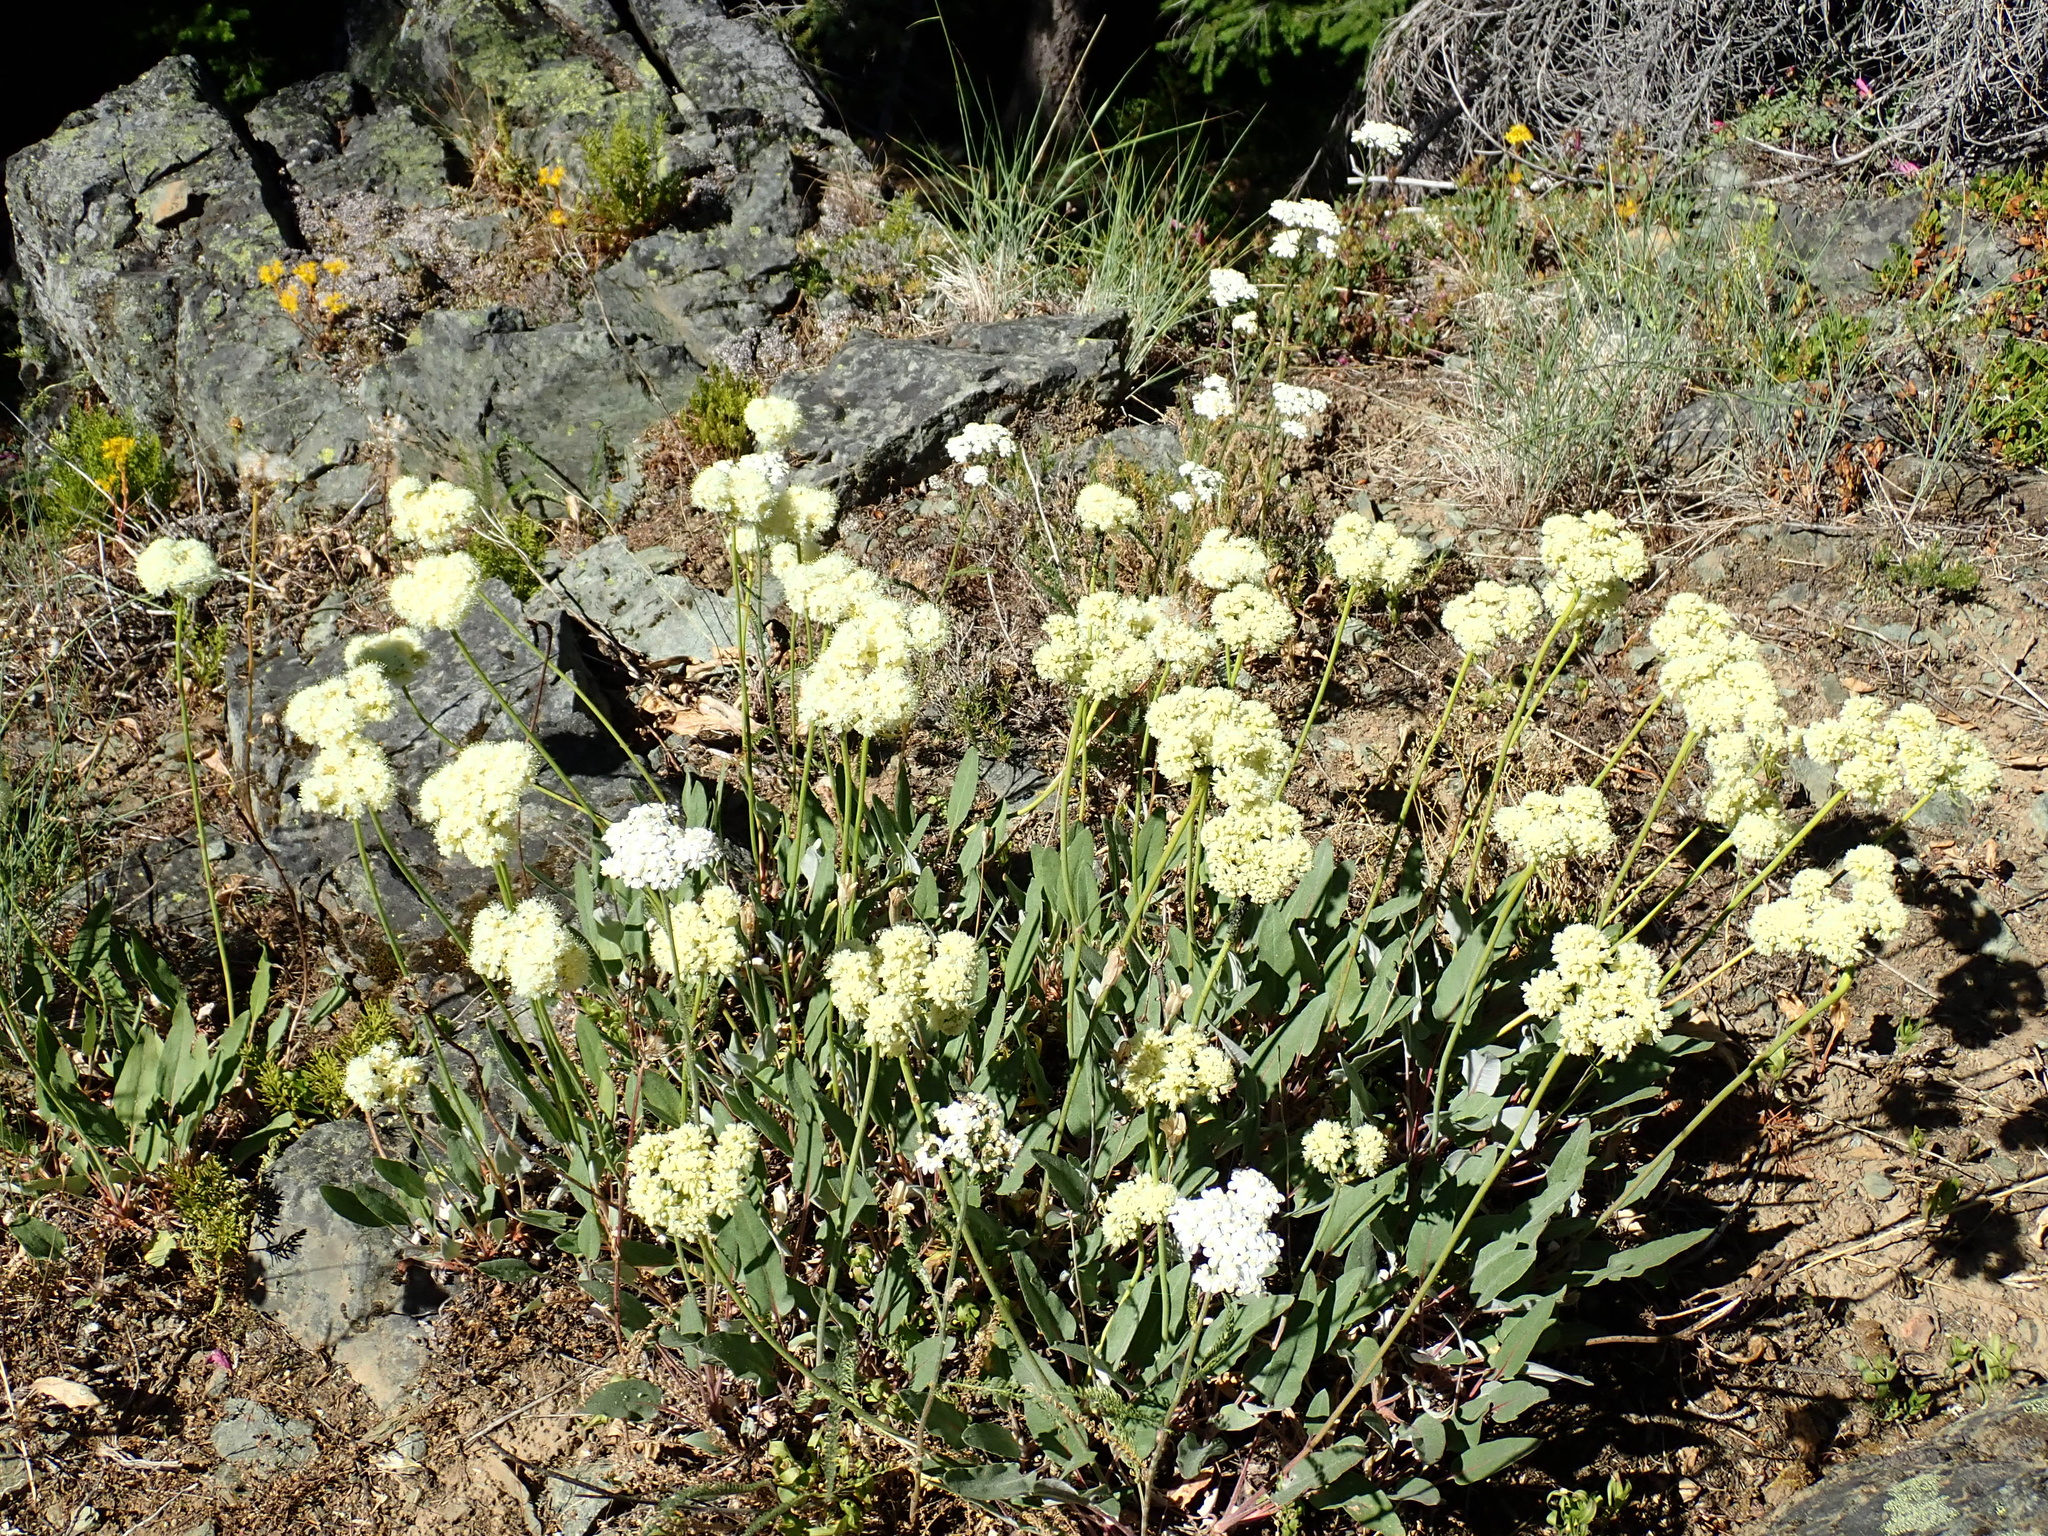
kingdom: Plantae
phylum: Tracheophyta
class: Magnoliopsida
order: Caryophyllales
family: Polygonaceae
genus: Eriogonum
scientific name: Eriogonum compositum
